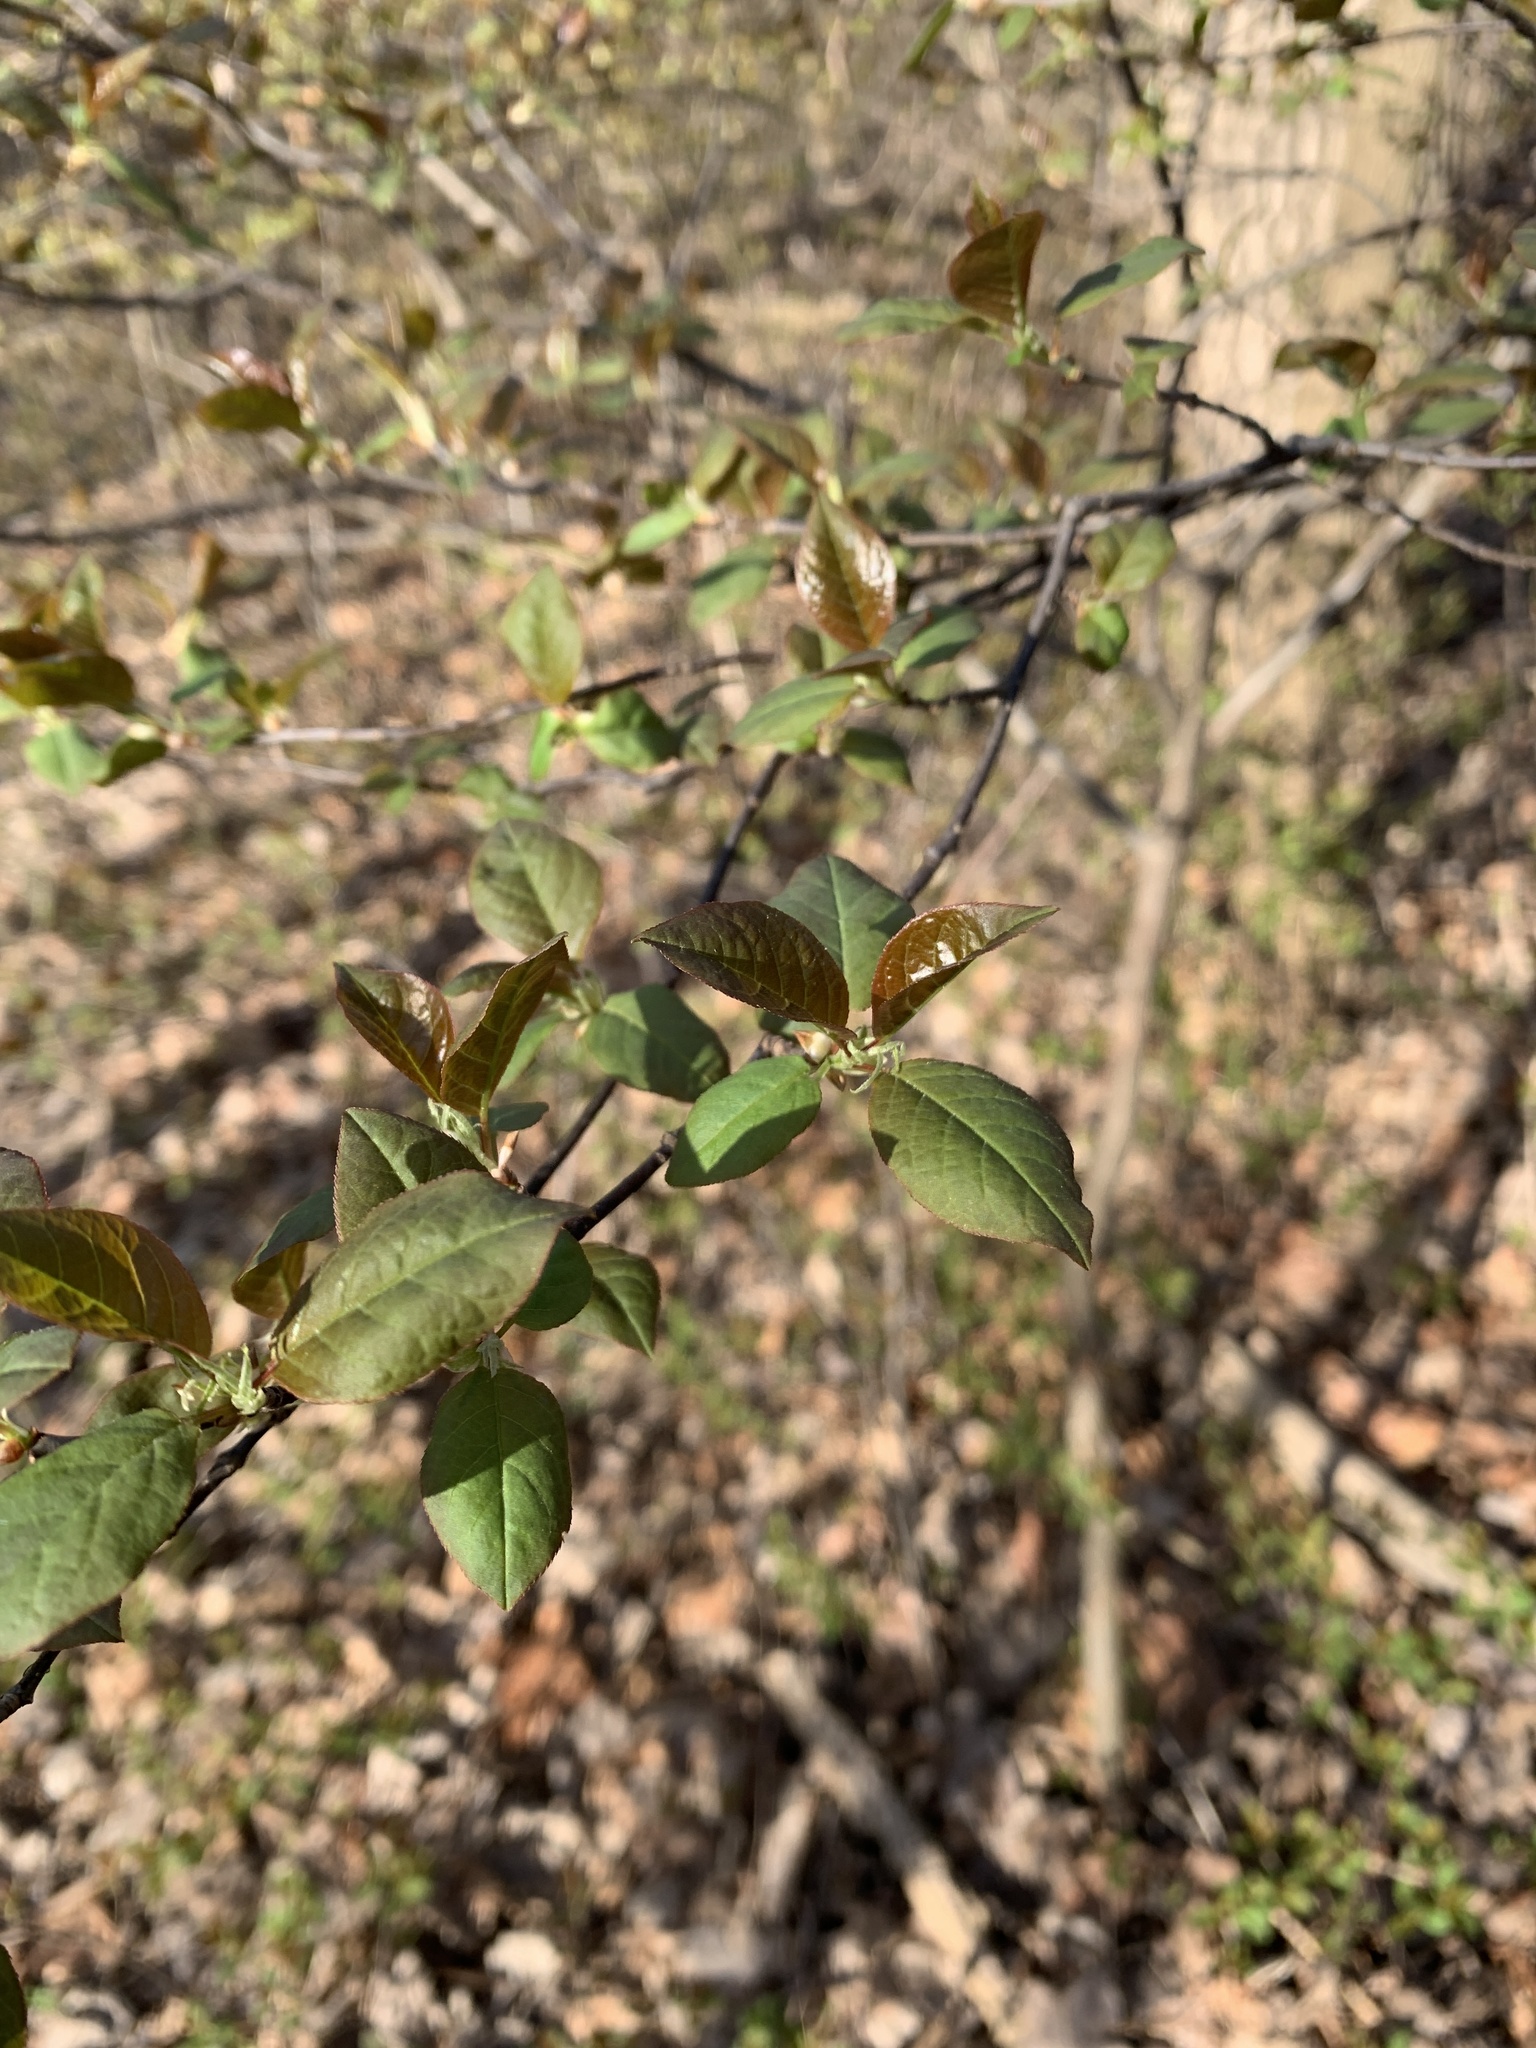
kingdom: Plantae
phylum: Tracheophyta
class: Magnoliopsida
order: Rosales
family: Rosaceae
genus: Prunus
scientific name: Prunus virginiana
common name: Chokecherry
